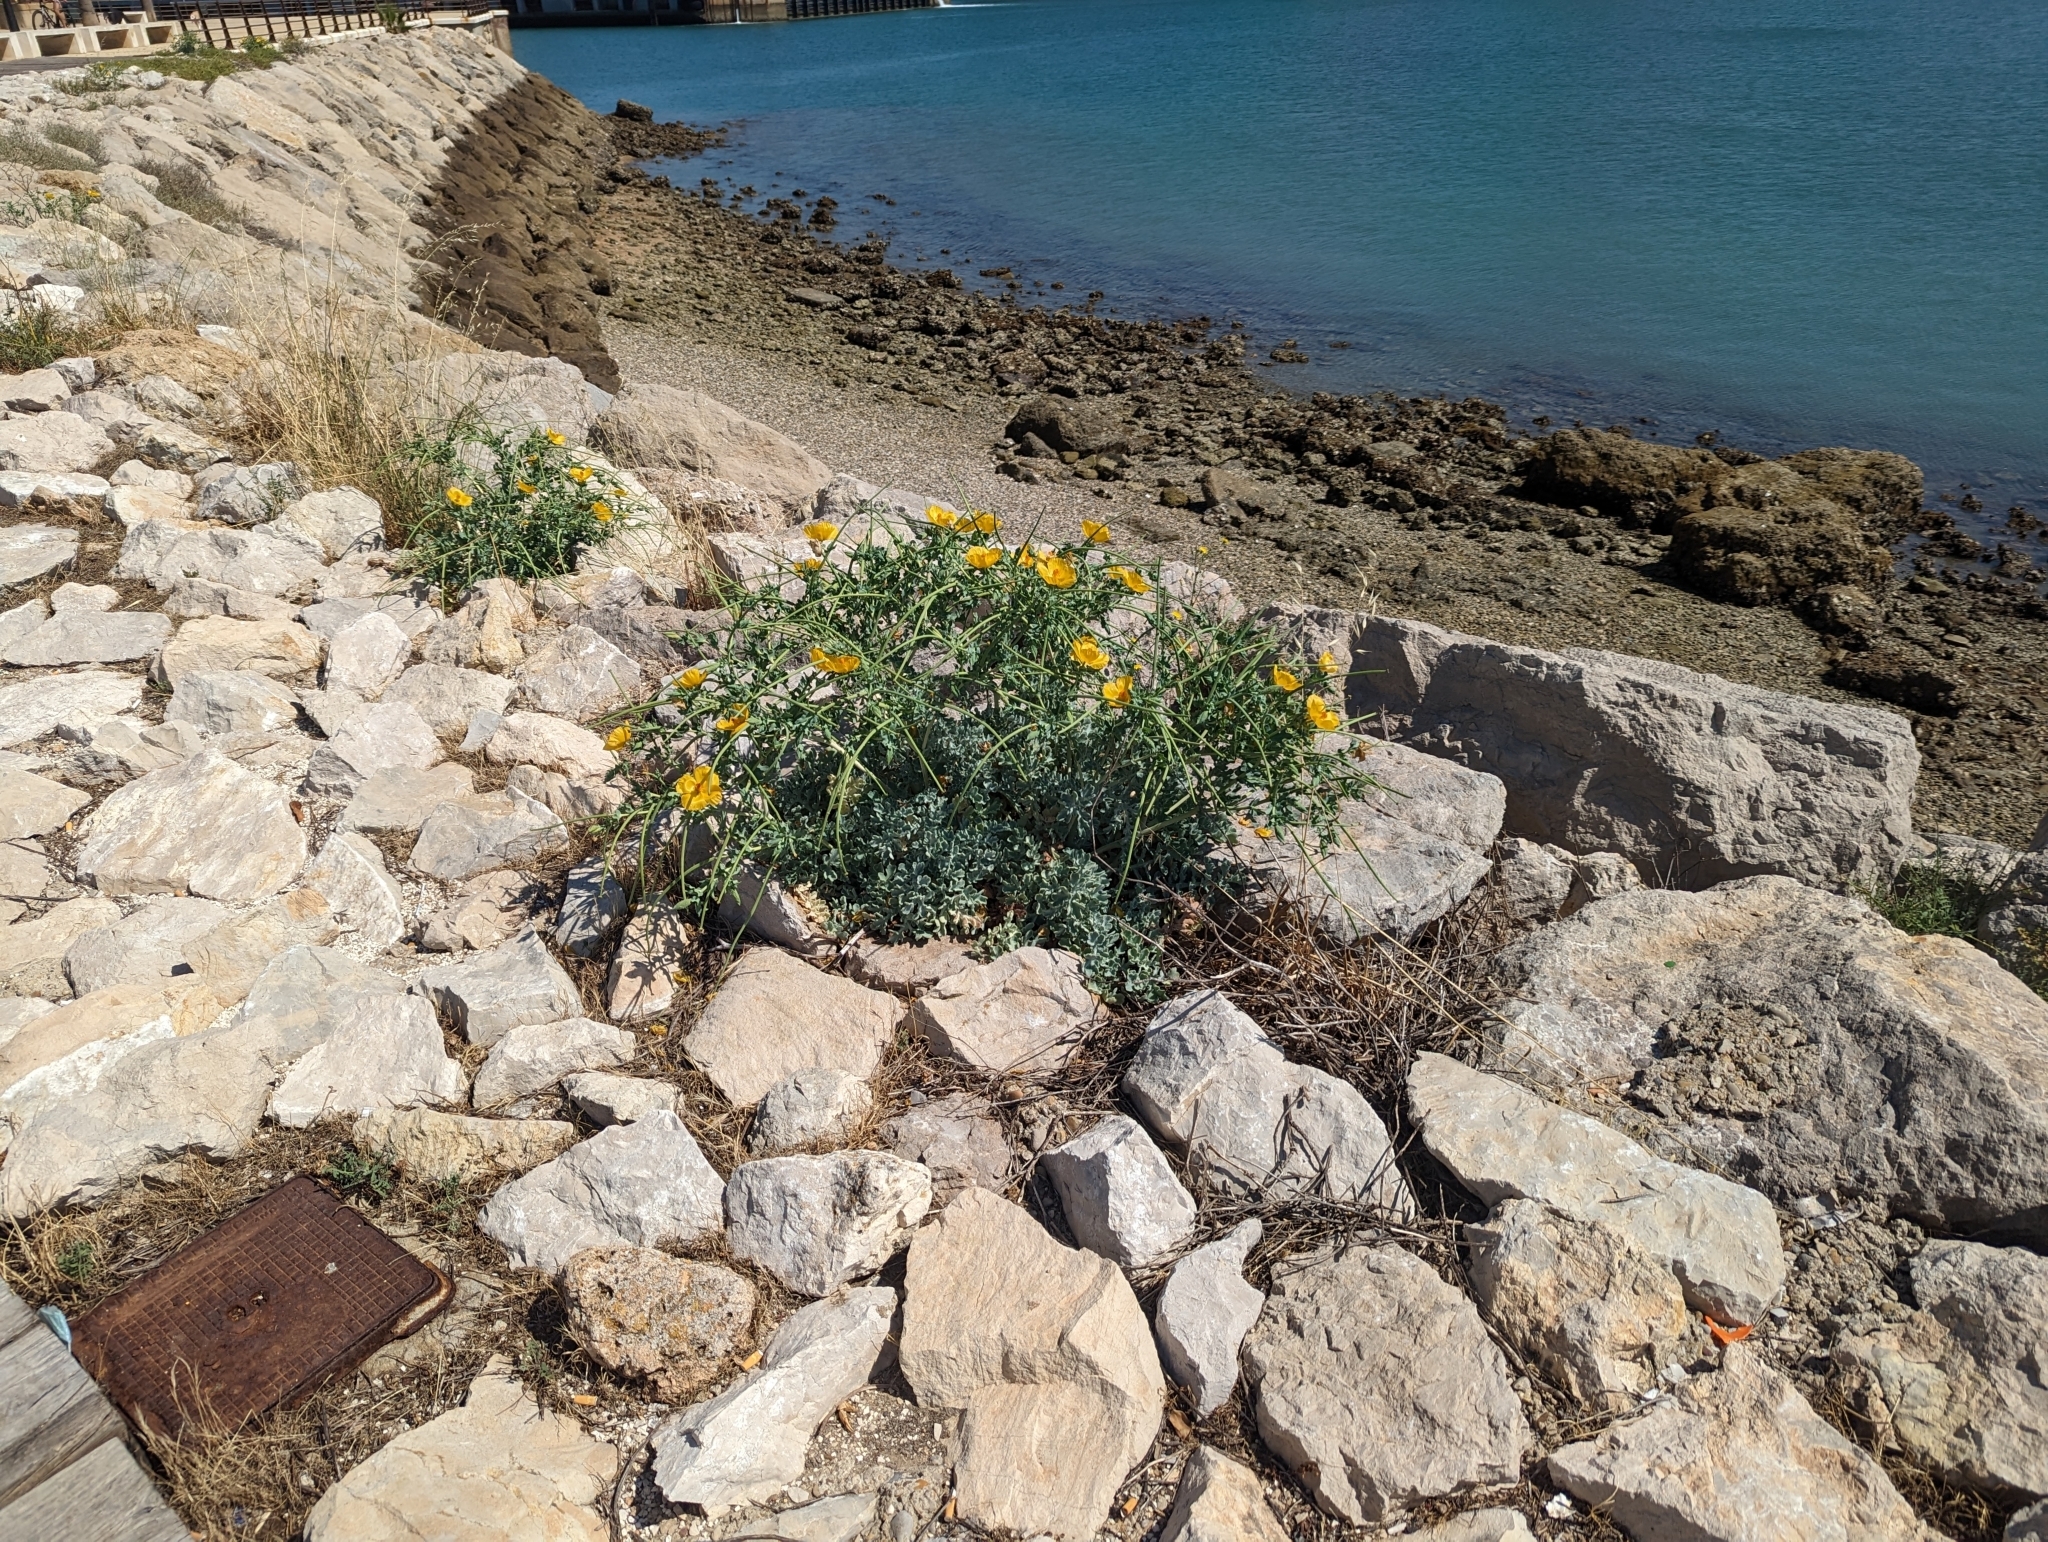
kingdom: Plantae
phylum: Tracheophyta
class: Magnoliopsida
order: Ranunculales
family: Papaveraceae
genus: Glaucium
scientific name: Glaucium flavum
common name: Yellow horned-poppy
